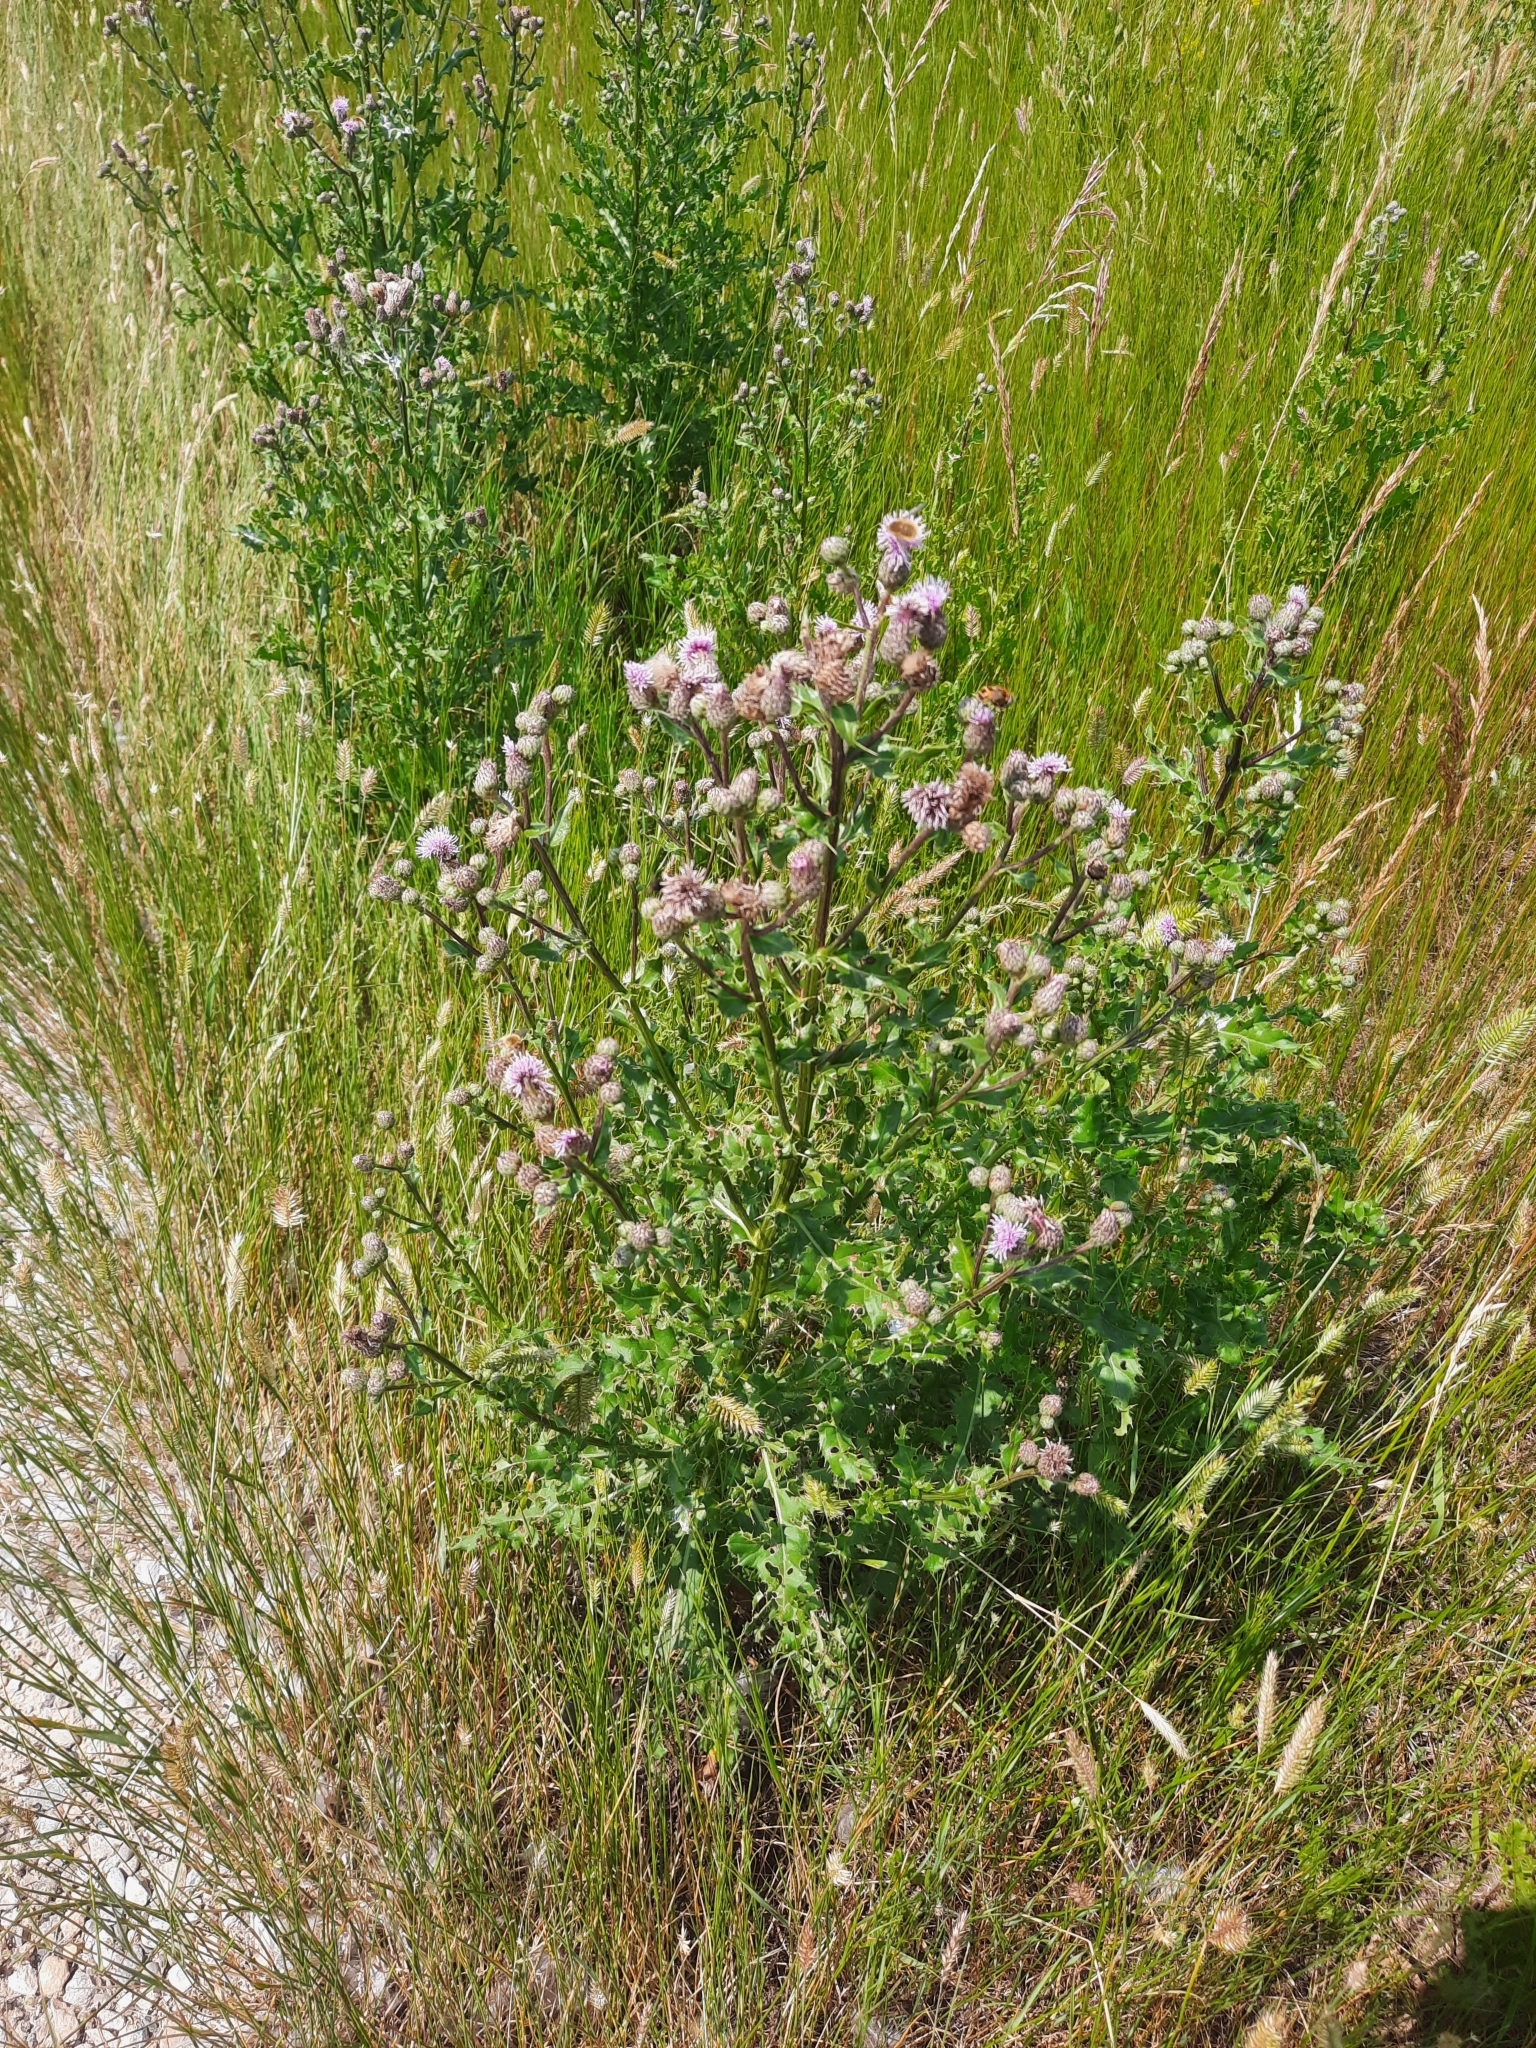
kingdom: Plantae
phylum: Tracheophyta
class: Magnoliopsida
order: Asterales
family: Asteraceae
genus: Cirsium
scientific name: Cirsium arvense
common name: Creeping thistle
